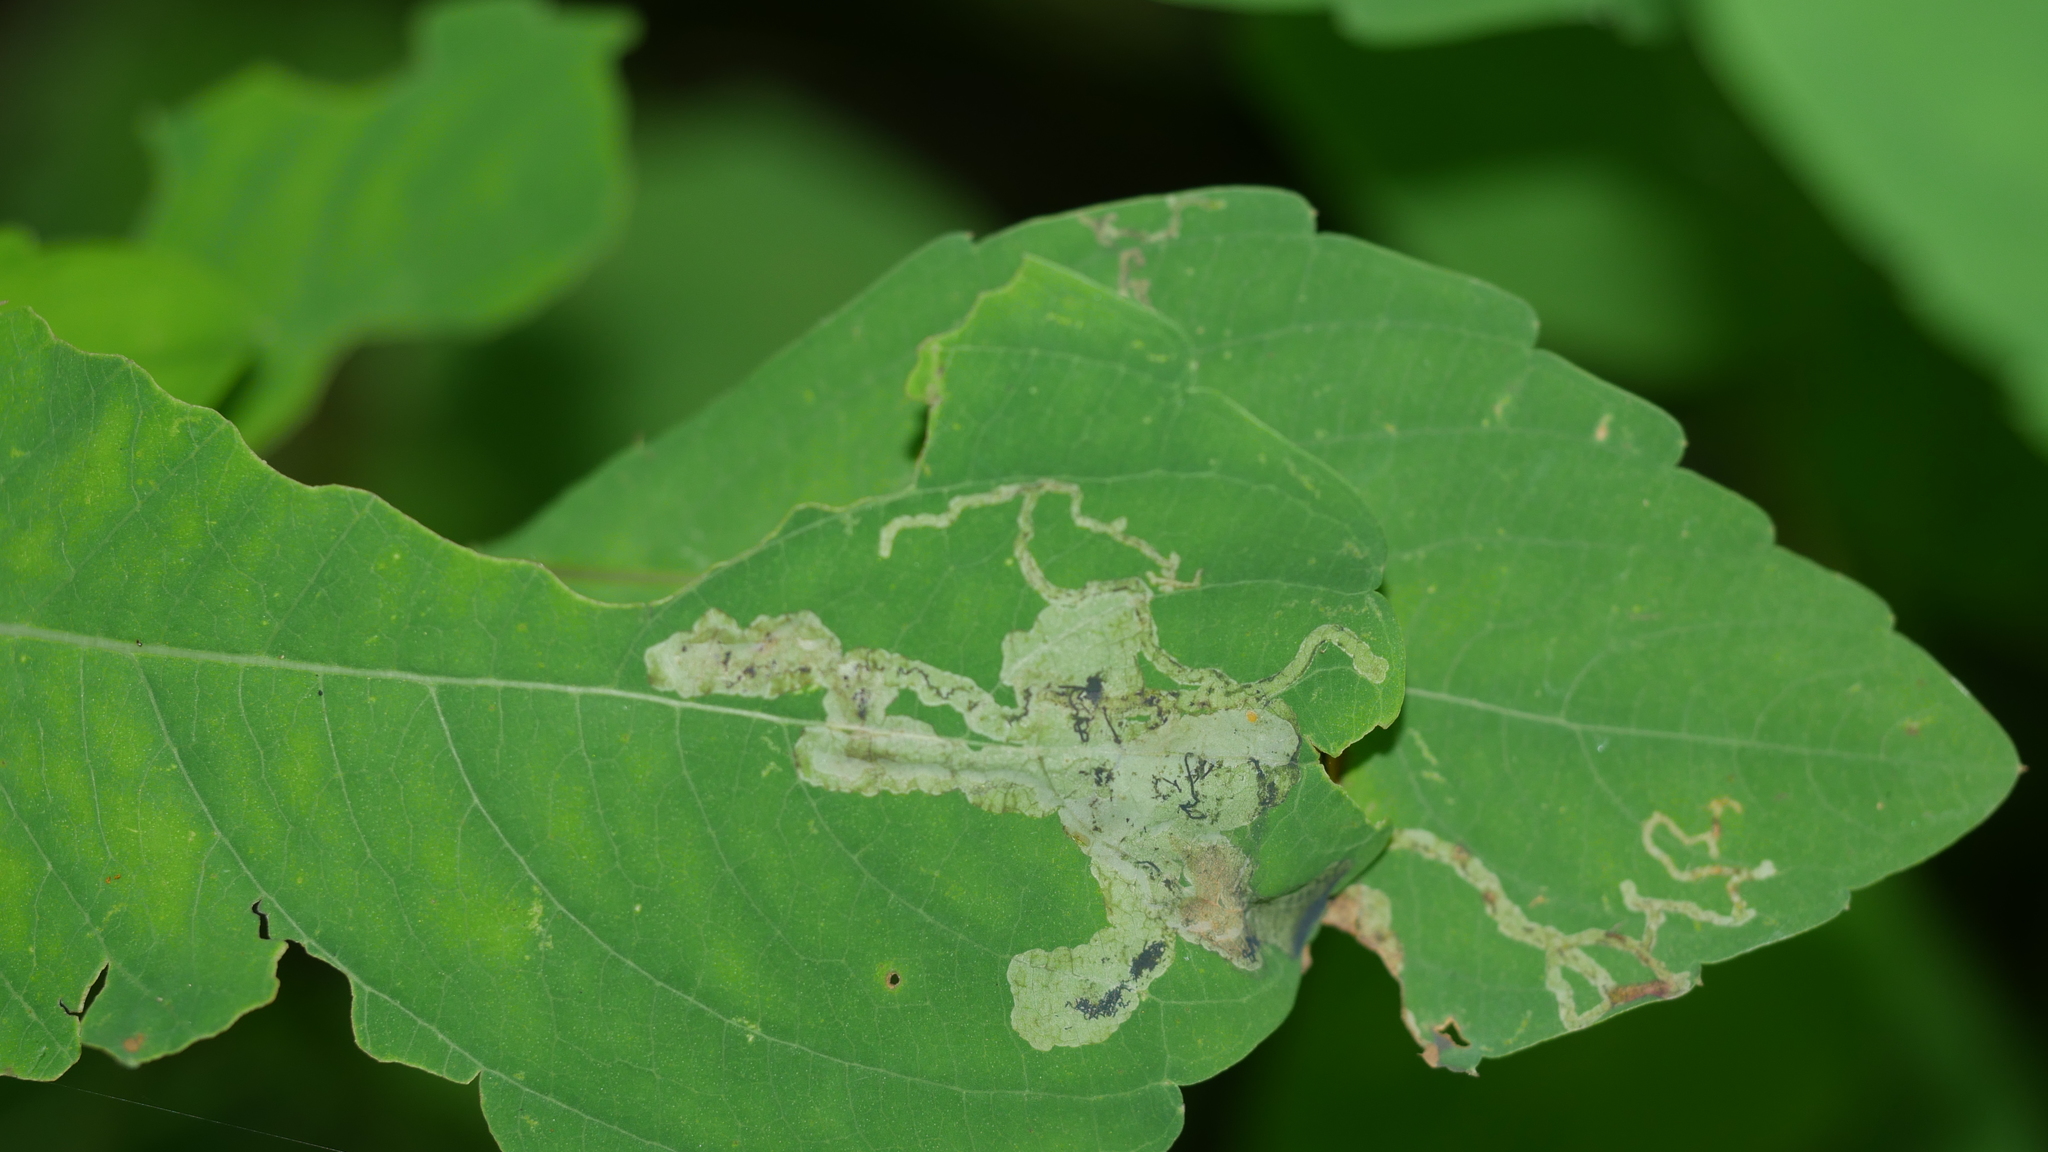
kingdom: Animalia
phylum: Arthropoda
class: Insecta
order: Diptera
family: Agromyzidae
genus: Phytoliriomyza
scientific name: Phytoliriomyza melampyga
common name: Jewelweed leaf-miner fly
